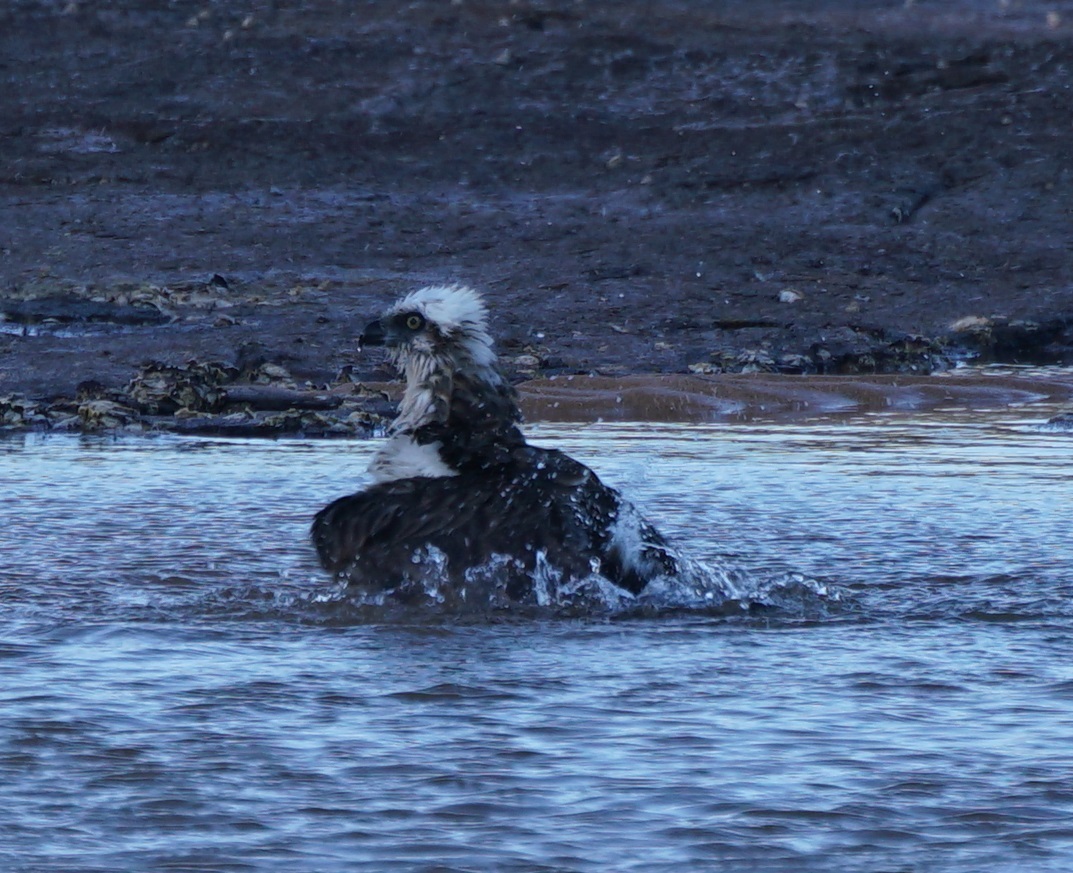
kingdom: Animalia
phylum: Chordata
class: Aves
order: Accipitriformes
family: Pandionidae
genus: Pandion
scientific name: Pandion haliaetus
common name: Osprey
